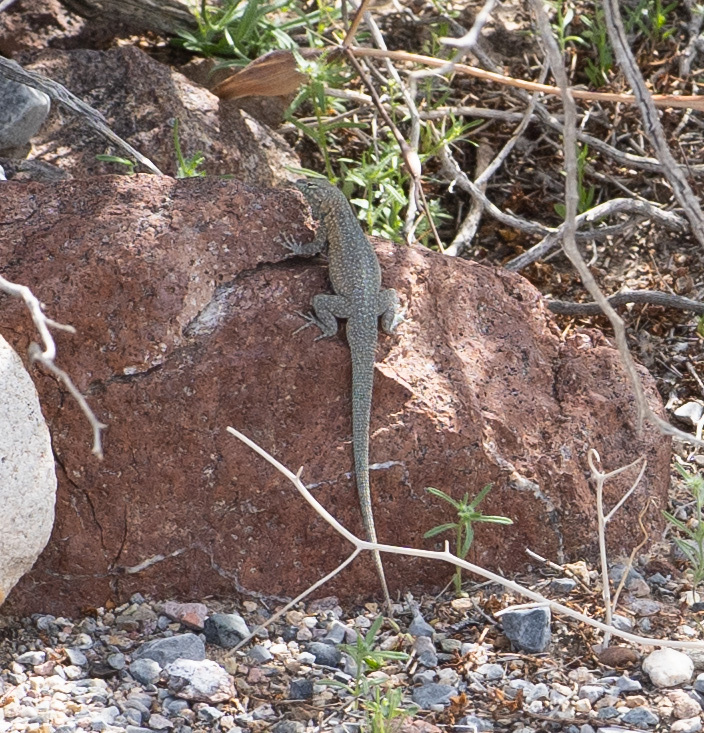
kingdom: Animalia
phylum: Chordata
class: Squamata
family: Phrynosomatidae
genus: Uta
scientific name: Uta stansburiana
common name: Side-blotched lizard
